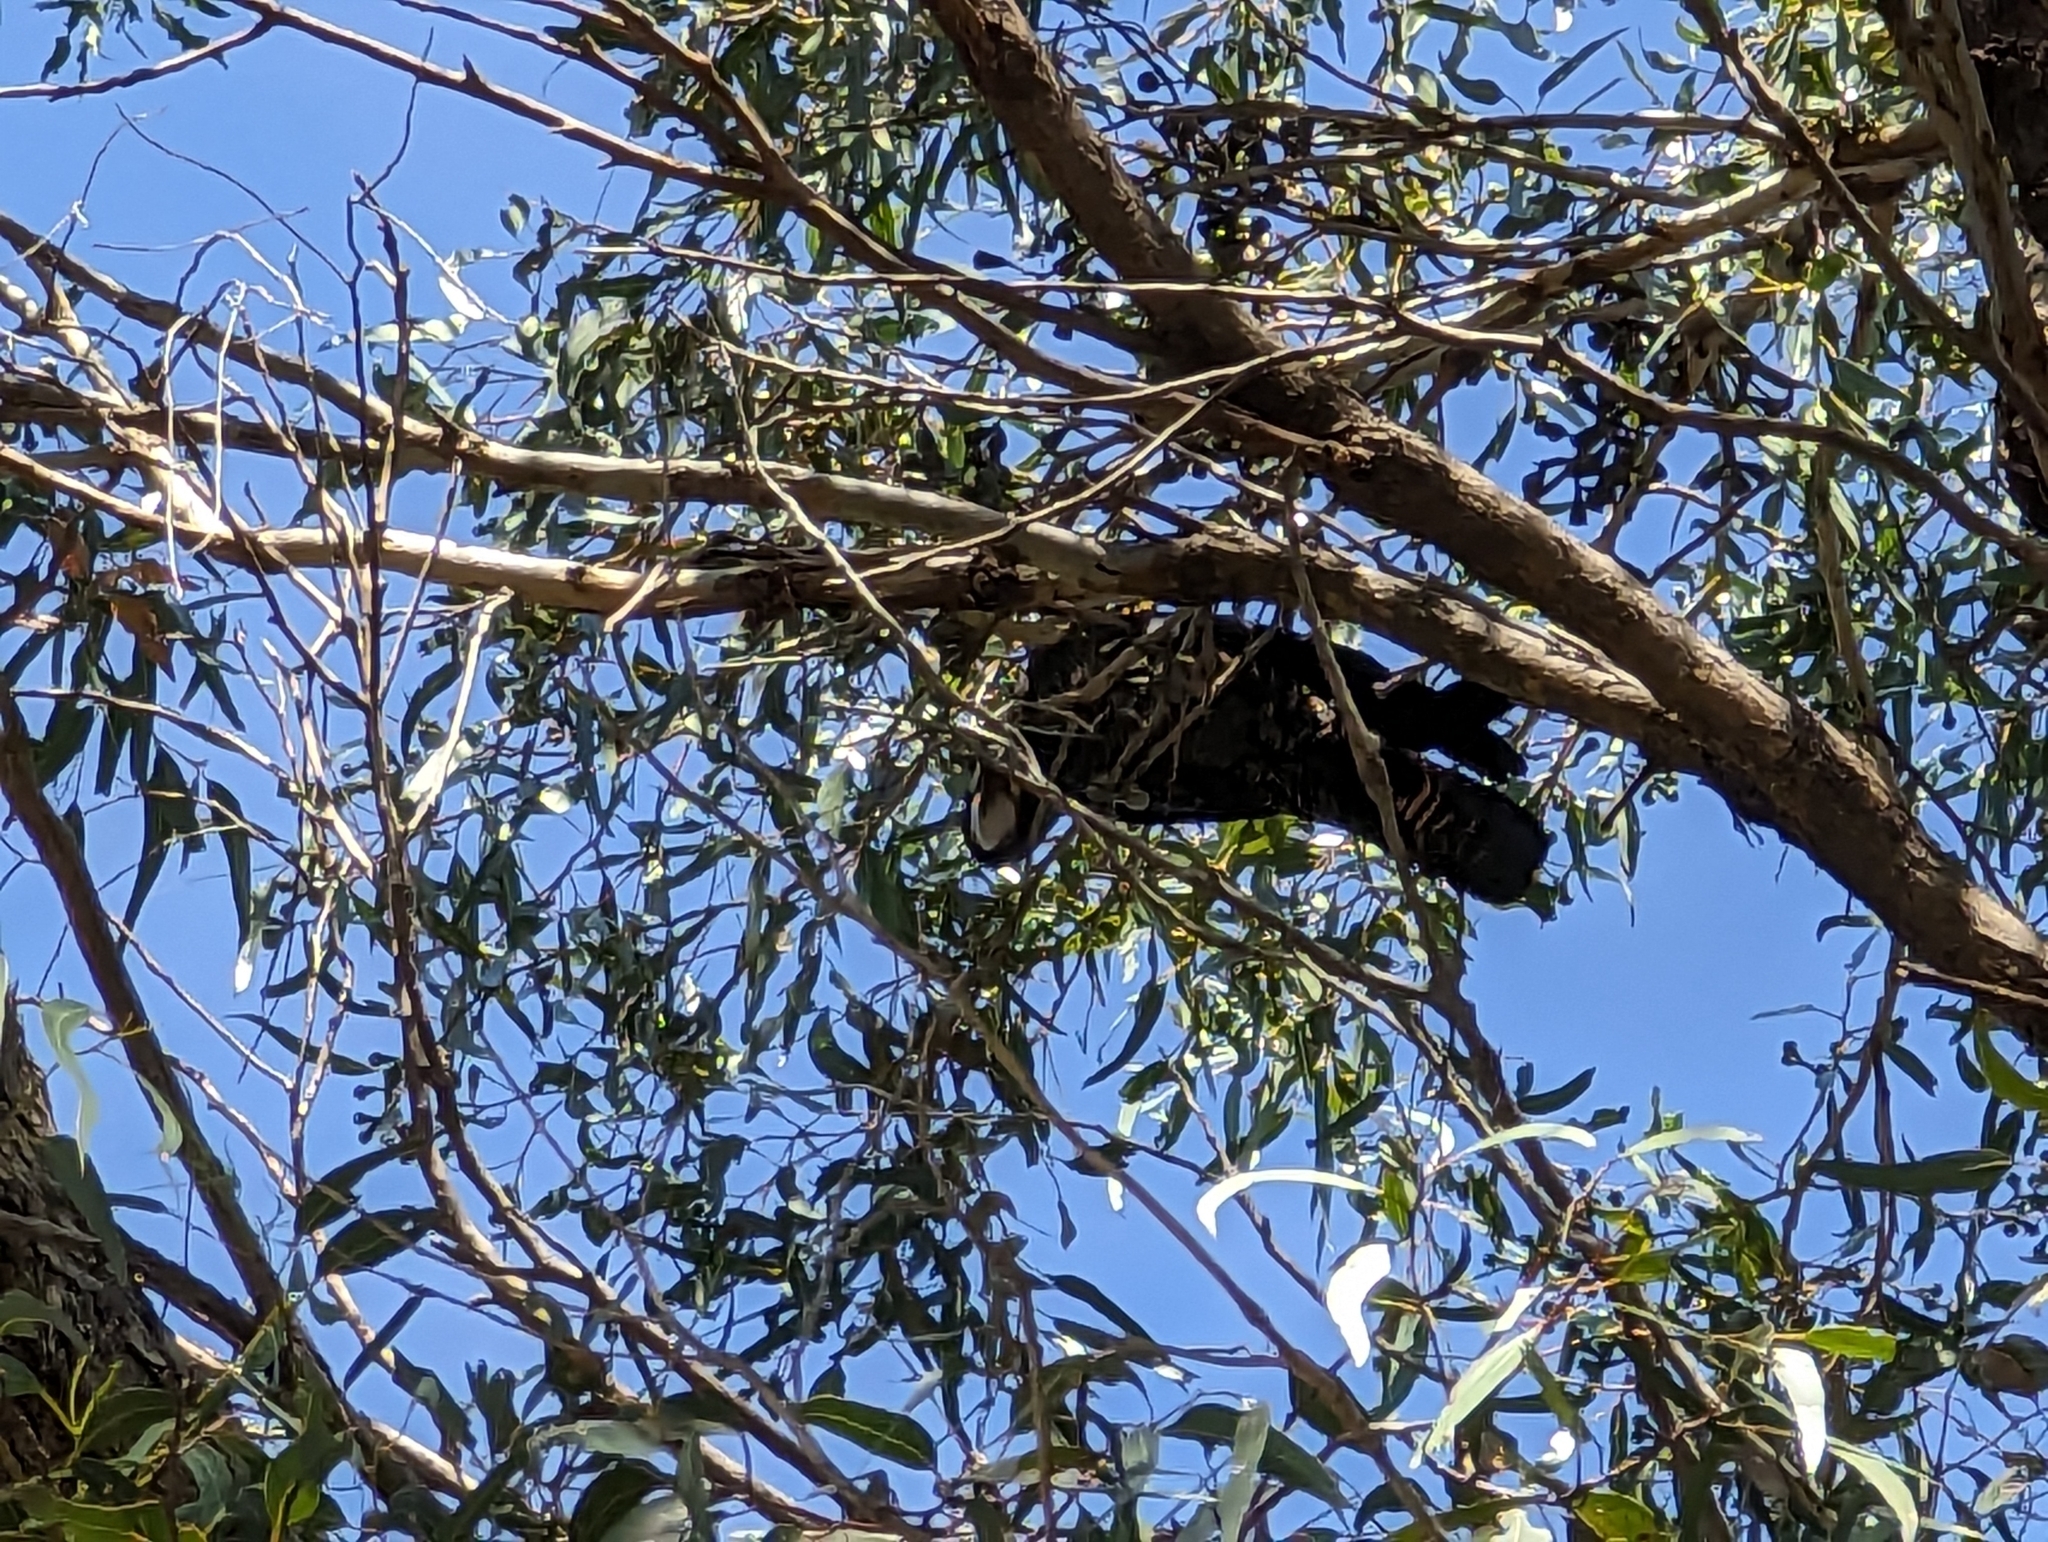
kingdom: Animalia
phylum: Chordata
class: Aves
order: Psittaciformes
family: Psittacidae
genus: Calyptorhynchus
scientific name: Calyptorhynchus banksii
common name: Red-tailed black cockatoo
